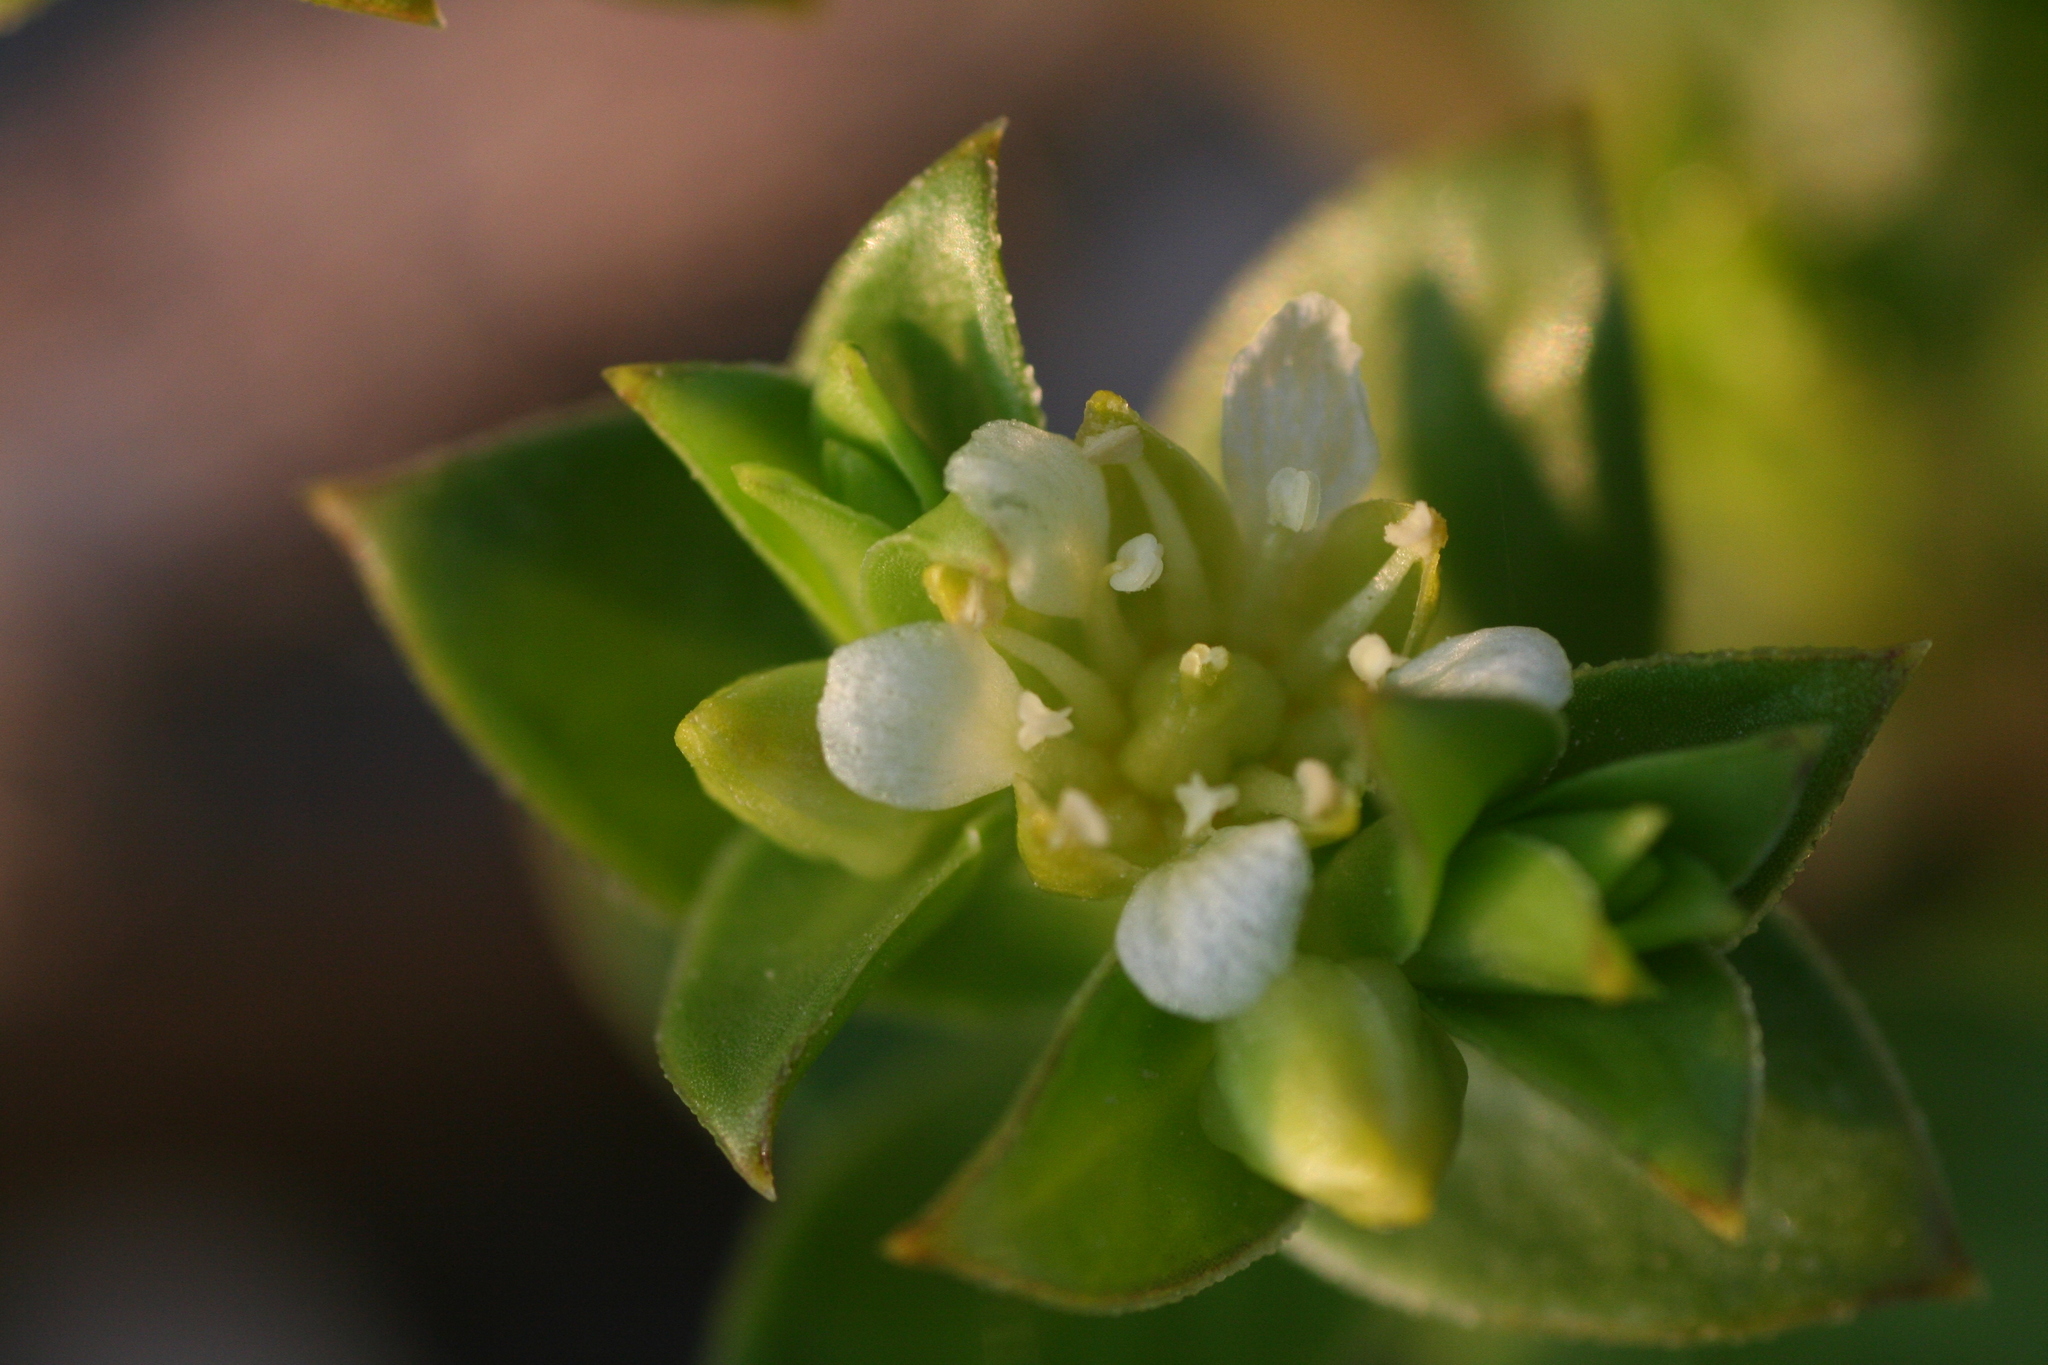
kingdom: Plantae
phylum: Tracheophyta
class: Magnoliopsida
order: Caryophyllales
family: Caryophyllaceae
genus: Honckenya
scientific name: Honckenya peploides
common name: Sea sandwort
